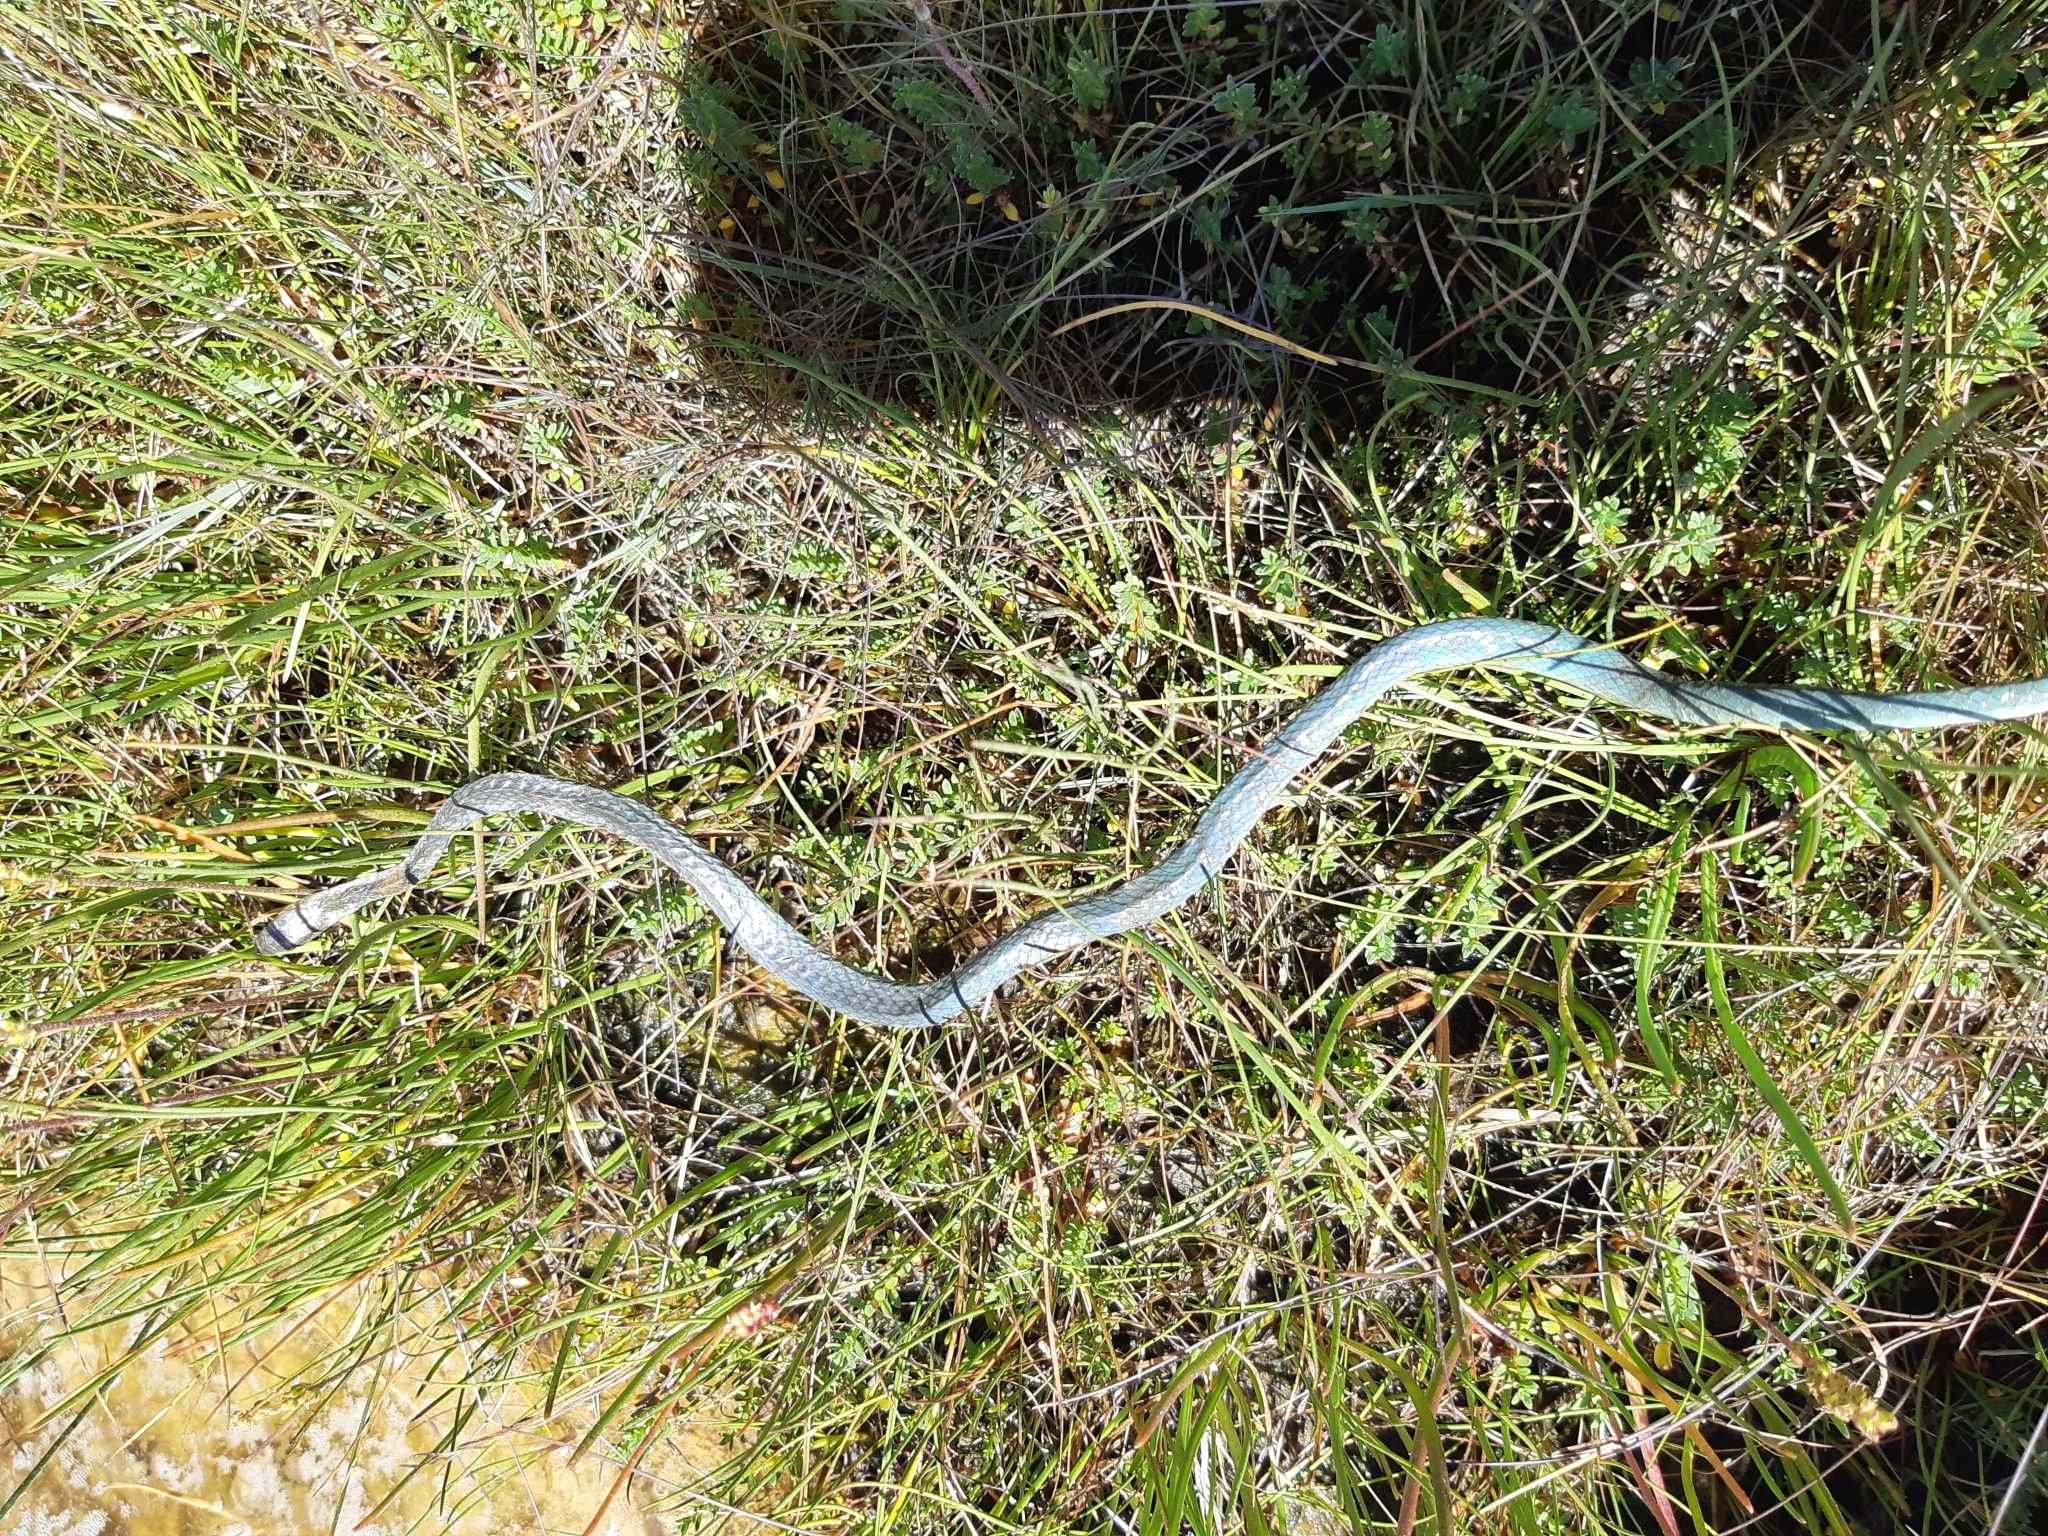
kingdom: Animalia
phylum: Chordata
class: Squamata
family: Colubridae
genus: Opheodrys
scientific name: Opheodrys vernalis
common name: Smooth green snake
